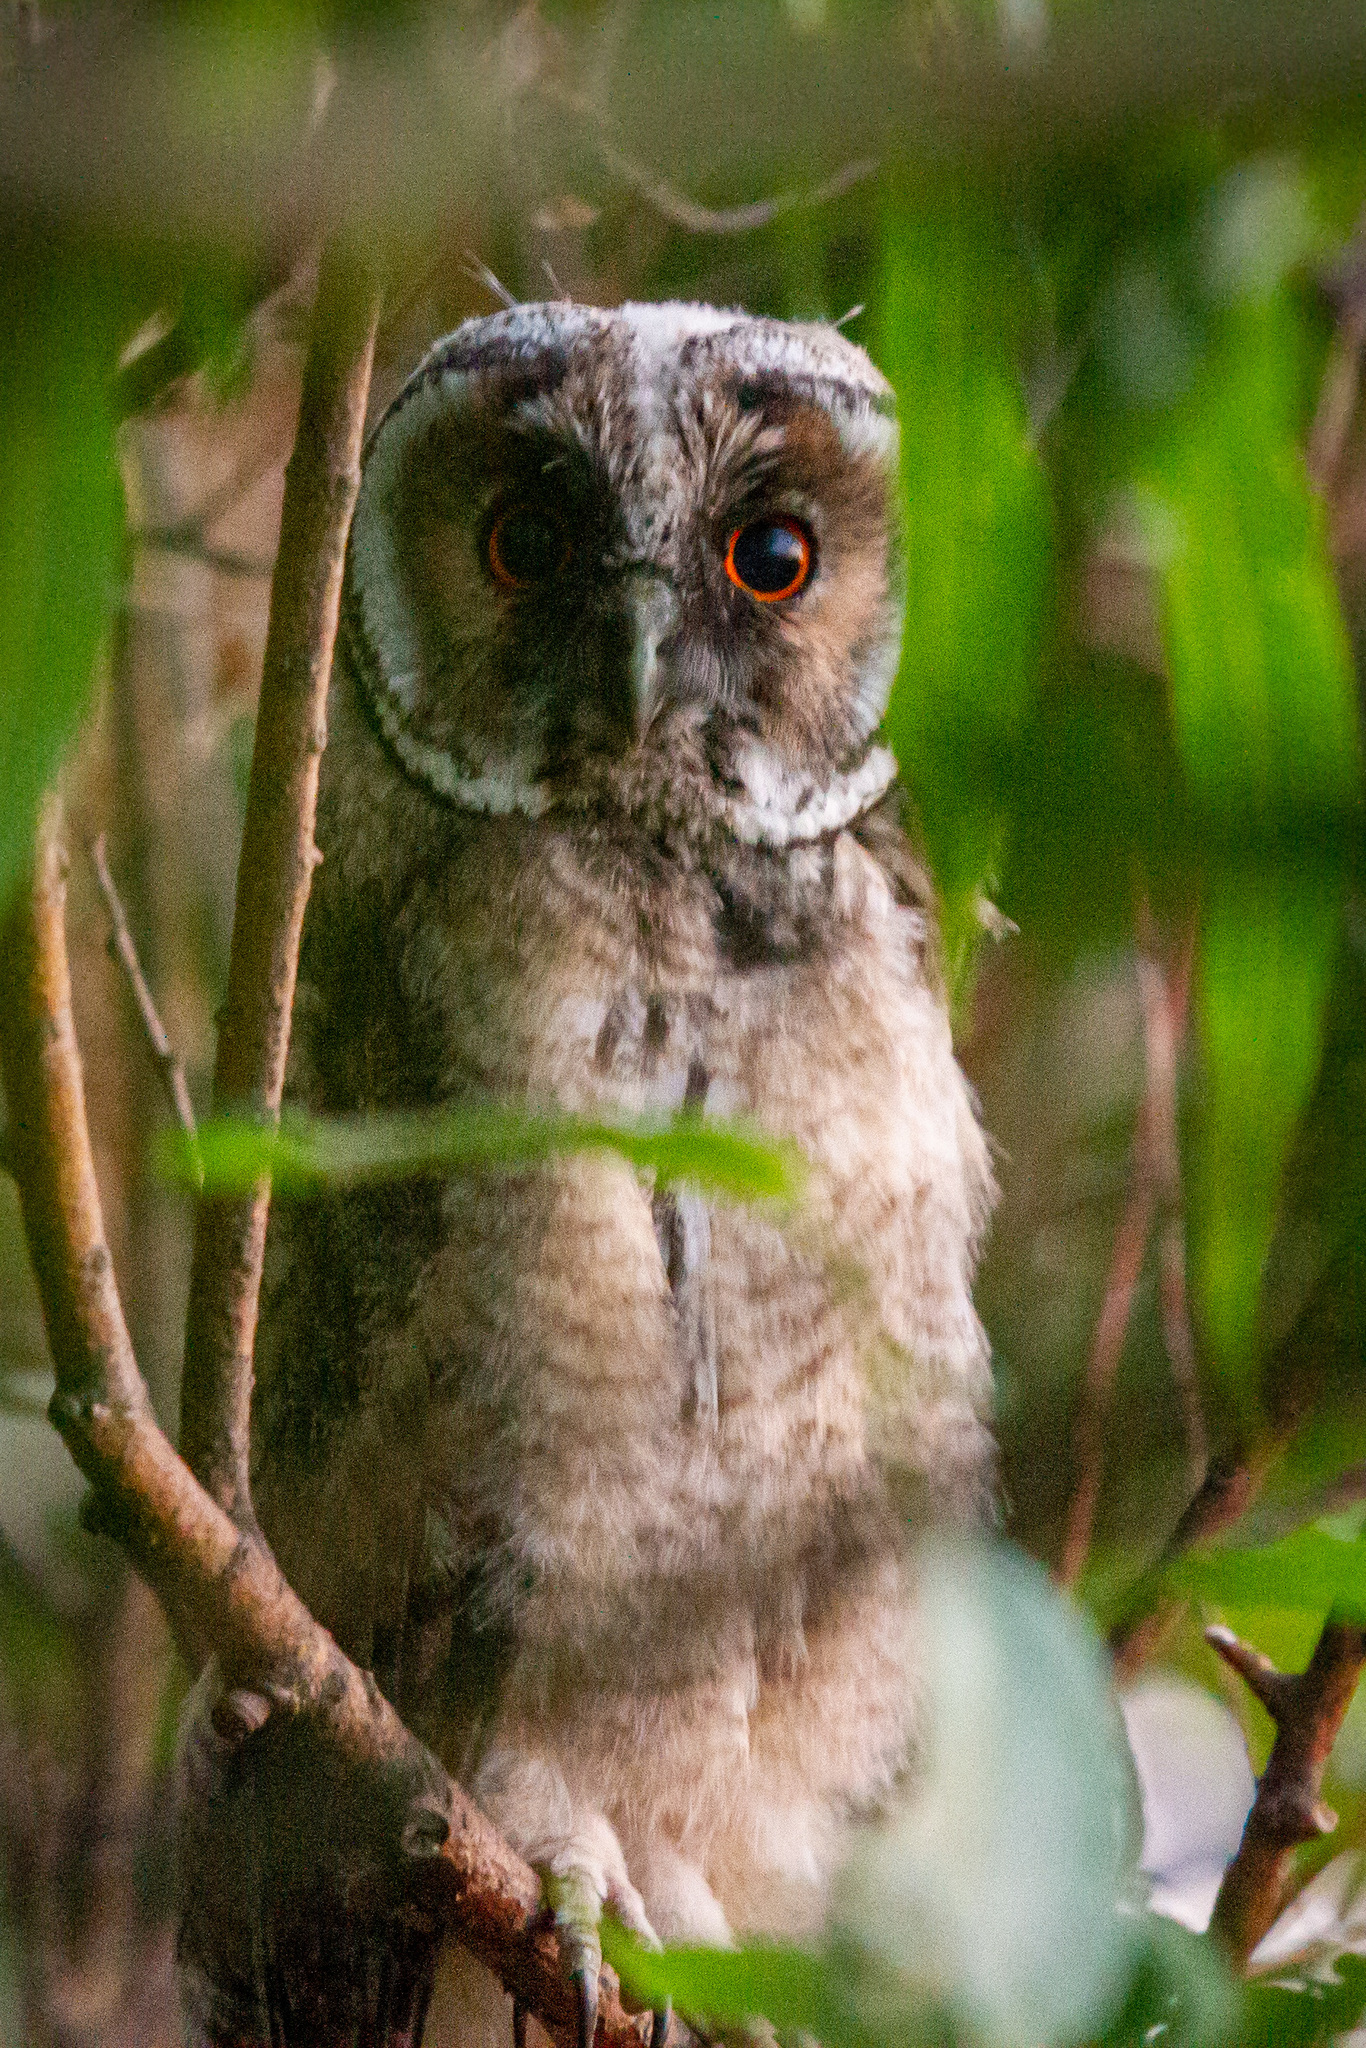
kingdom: Animalia
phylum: Chordata
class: Aves
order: Strigiformes
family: Strigidae
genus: Asio
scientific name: Asio otus
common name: Long-eared owl
